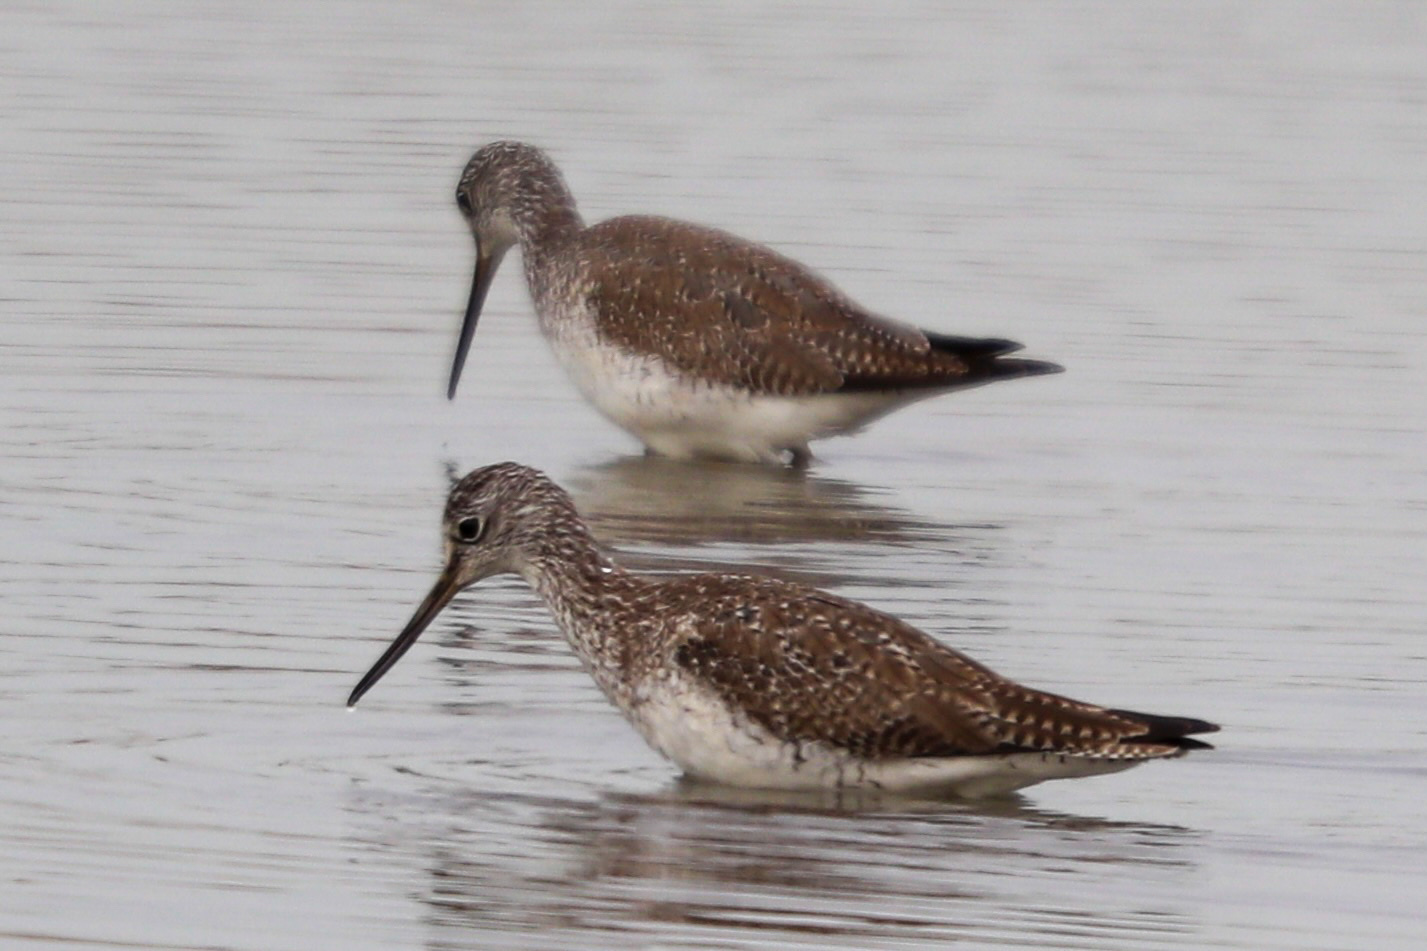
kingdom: Animalia
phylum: Chordata
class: Aves
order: Charadriiformes
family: Scolopacidae
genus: Tringa
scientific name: Tringa melanoleuca
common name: Greater yellowlegs
